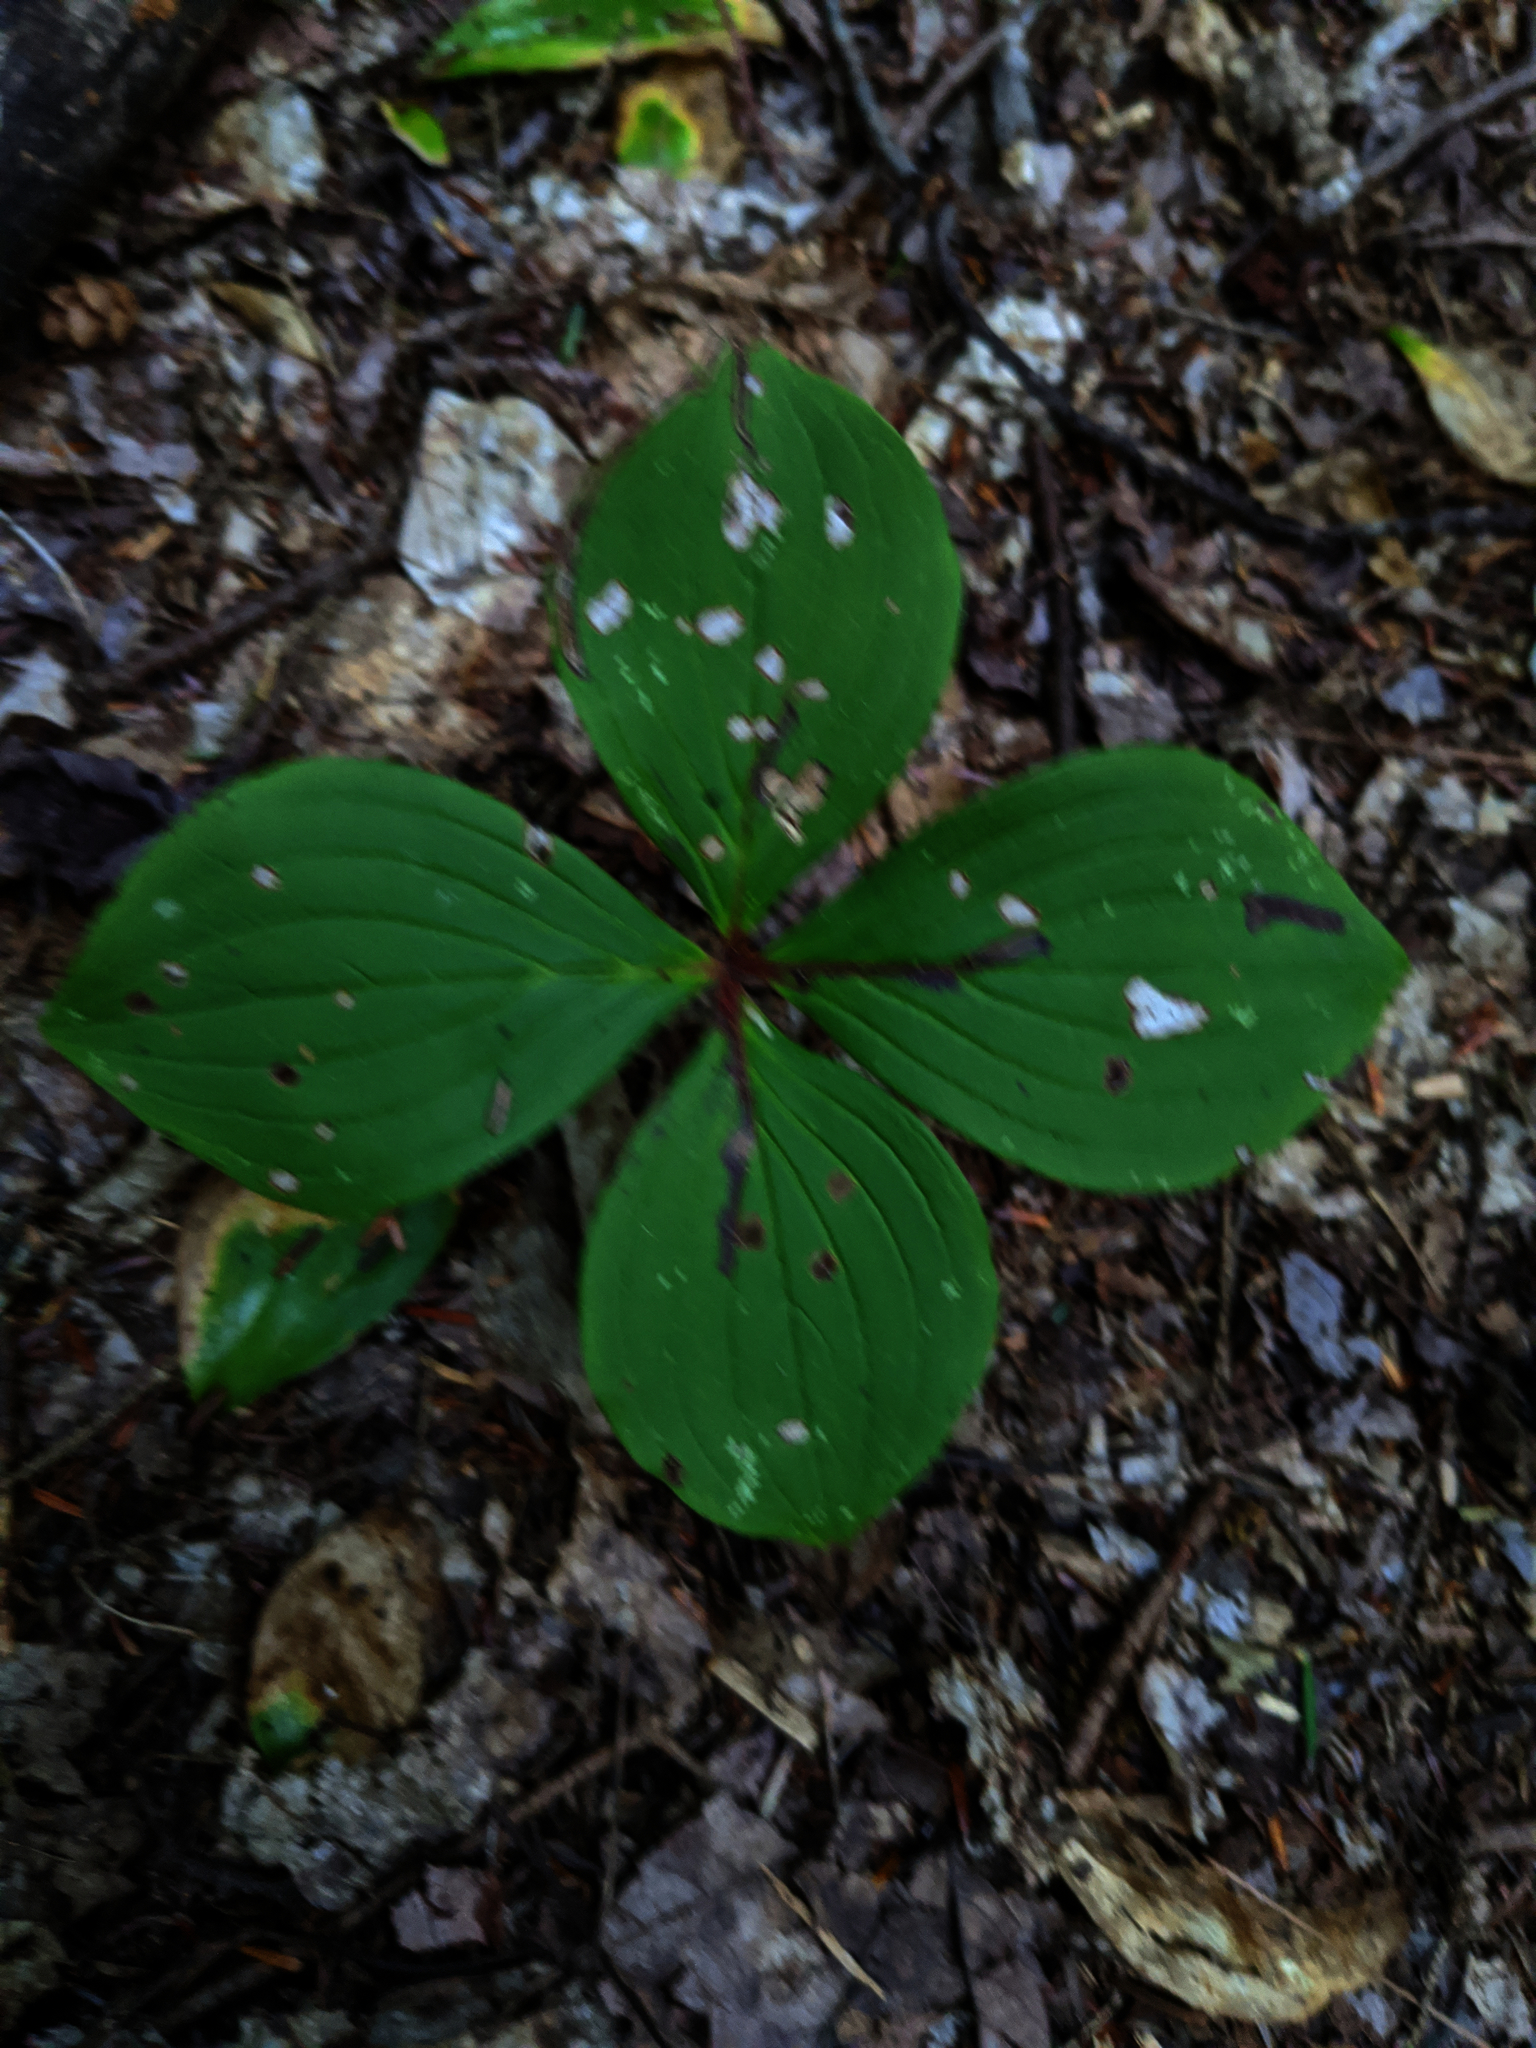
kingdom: Plantae
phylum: Tracheophyta
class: Magnoliopsida
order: Cornales
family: Cornaceae
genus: Cornus
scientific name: Cornus canadensis
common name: Creeping dogwood
